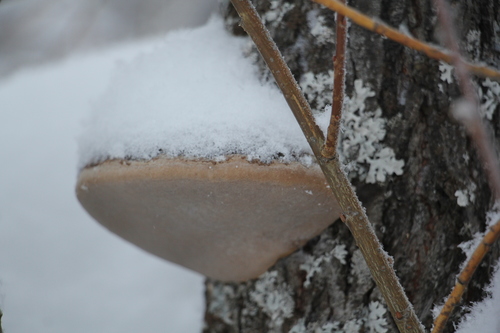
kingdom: Fungi
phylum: Basidiomycota
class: Agaricomycetes
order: Hymenochaetales
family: Hymenochaetaceae
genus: Phellinus
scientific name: Phellinus igniarius
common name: Willow bracket
